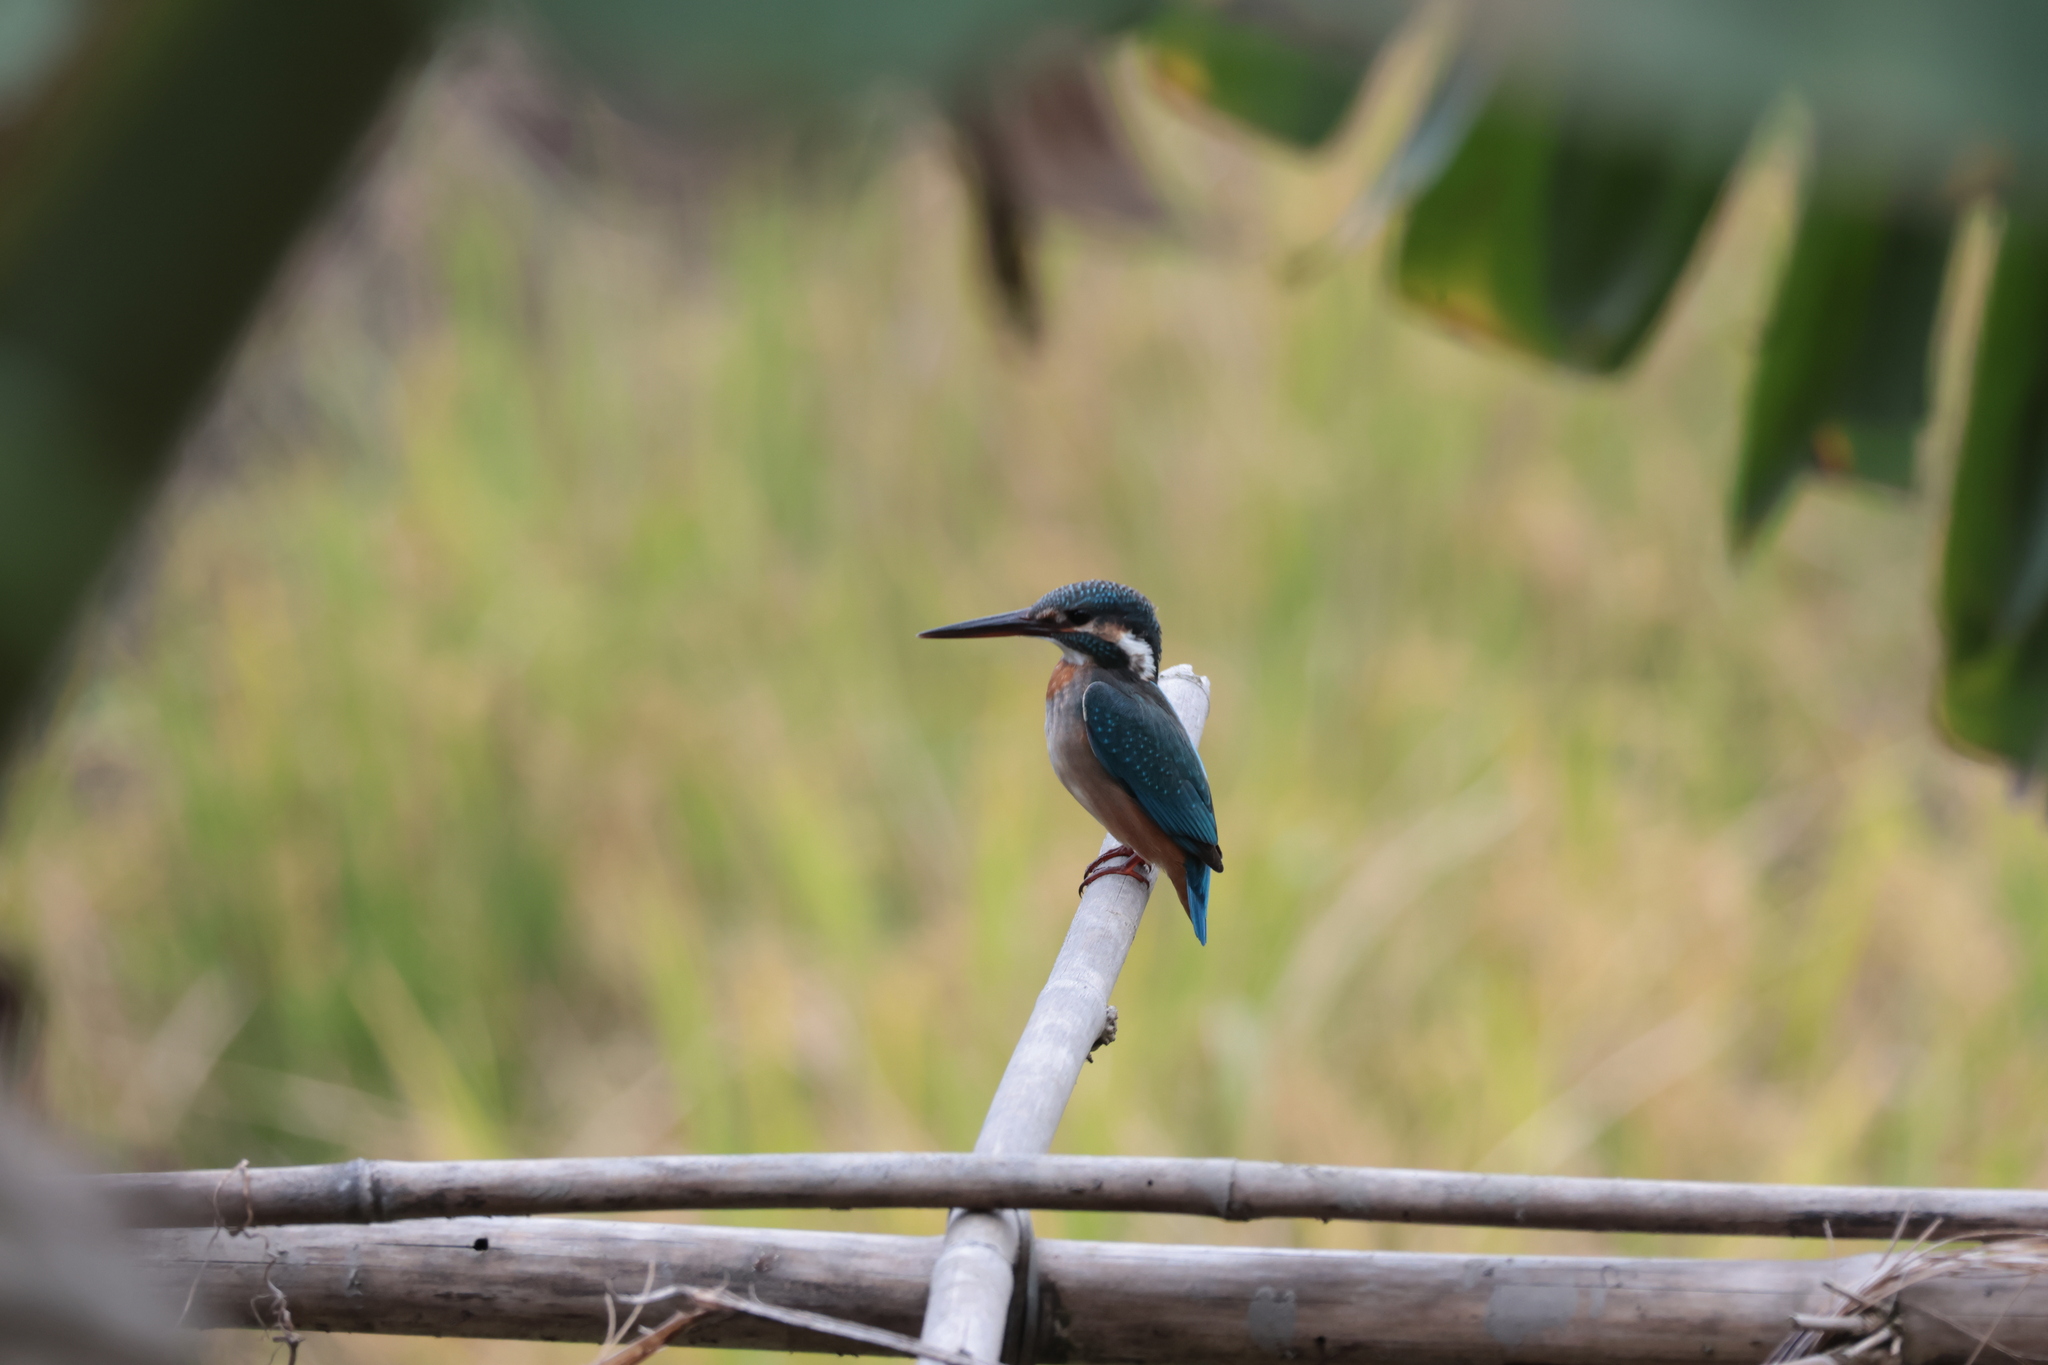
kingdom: Animalia
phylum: Chordata
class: Aves
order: Coraciiformes
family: Alcedinidae
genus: Alcedo
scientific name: Alcedo atthis
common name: Common kingfisher
